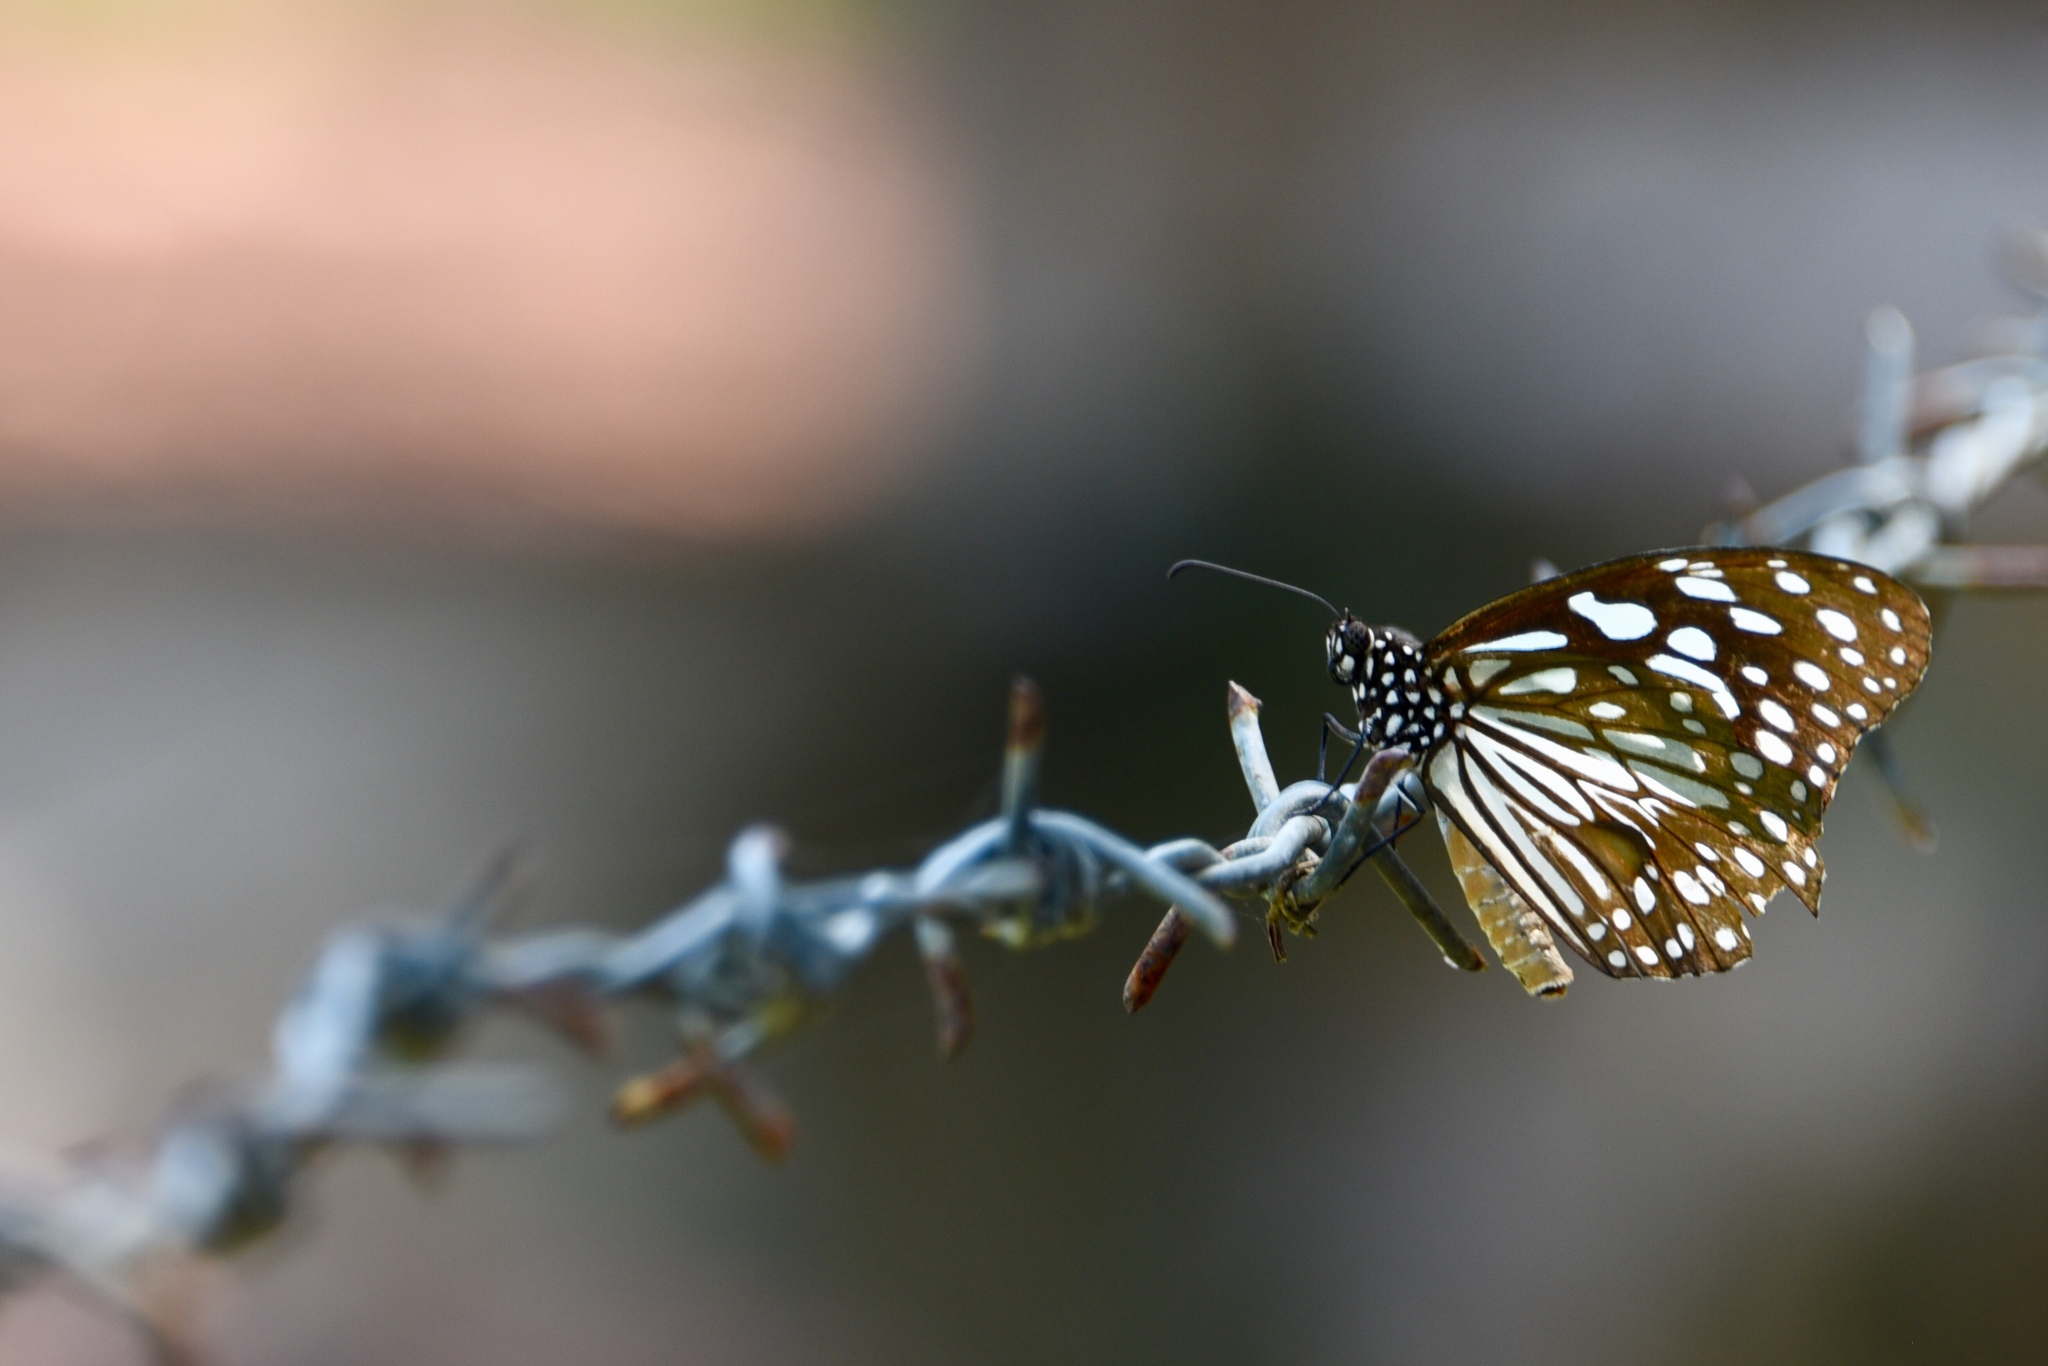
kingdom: Animalia
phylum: Arthropoda
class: Insecta
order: Lepidoptera
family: Nymphalidae
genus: Tirumala
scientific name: Tirumala limniace
